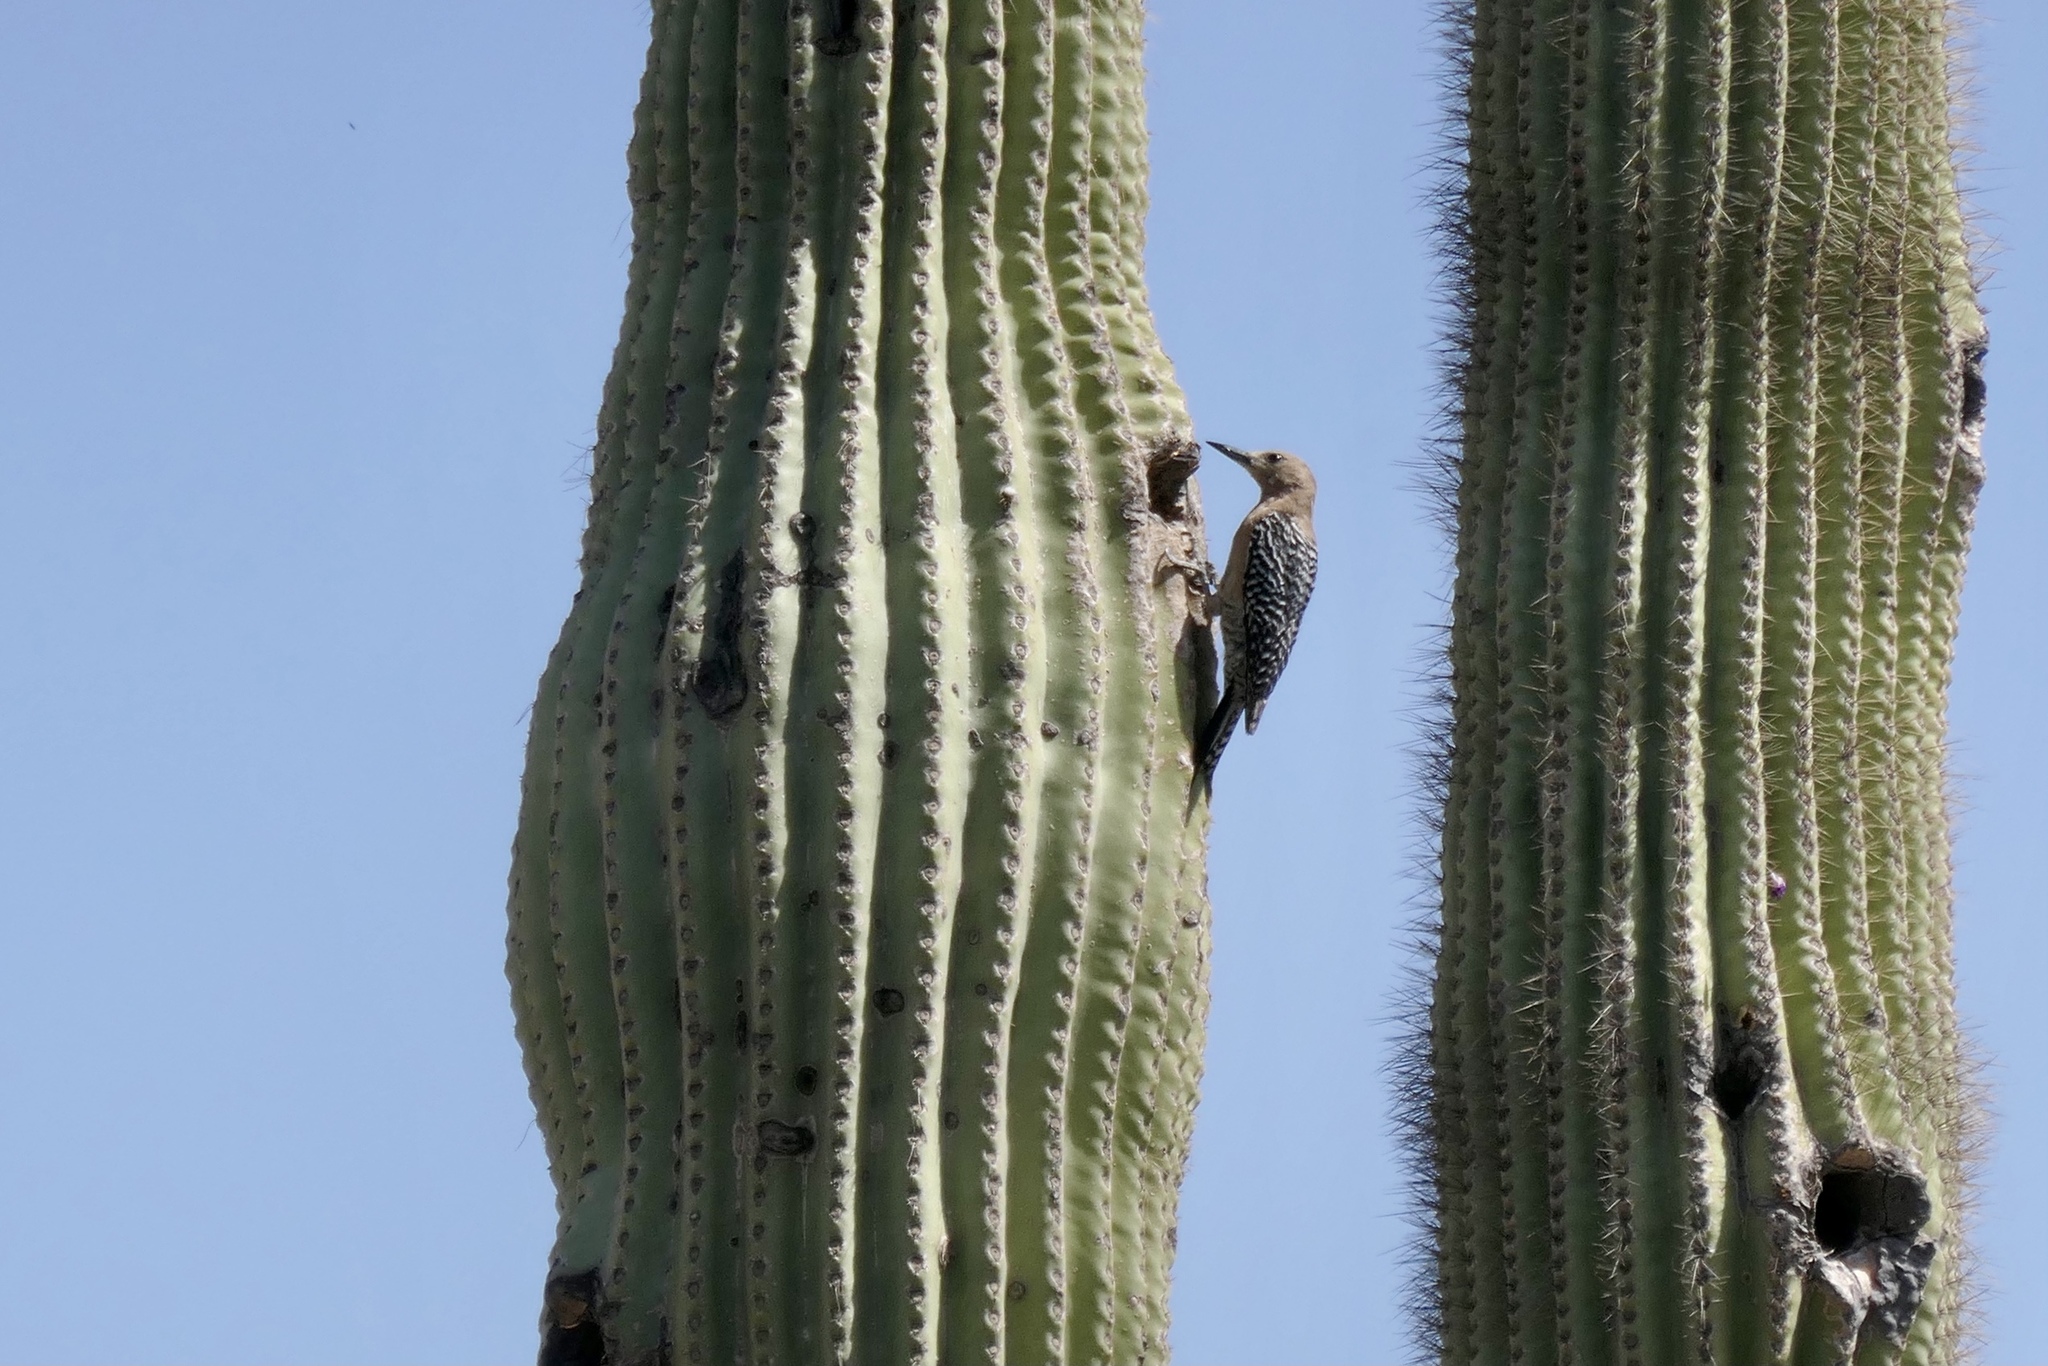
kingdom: Animalia
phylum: Chordata
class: Aves
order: Piciformes
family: Picidae
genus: Melanerpes
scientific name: Melanerpes uropygialis
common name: Gila woodpecker
